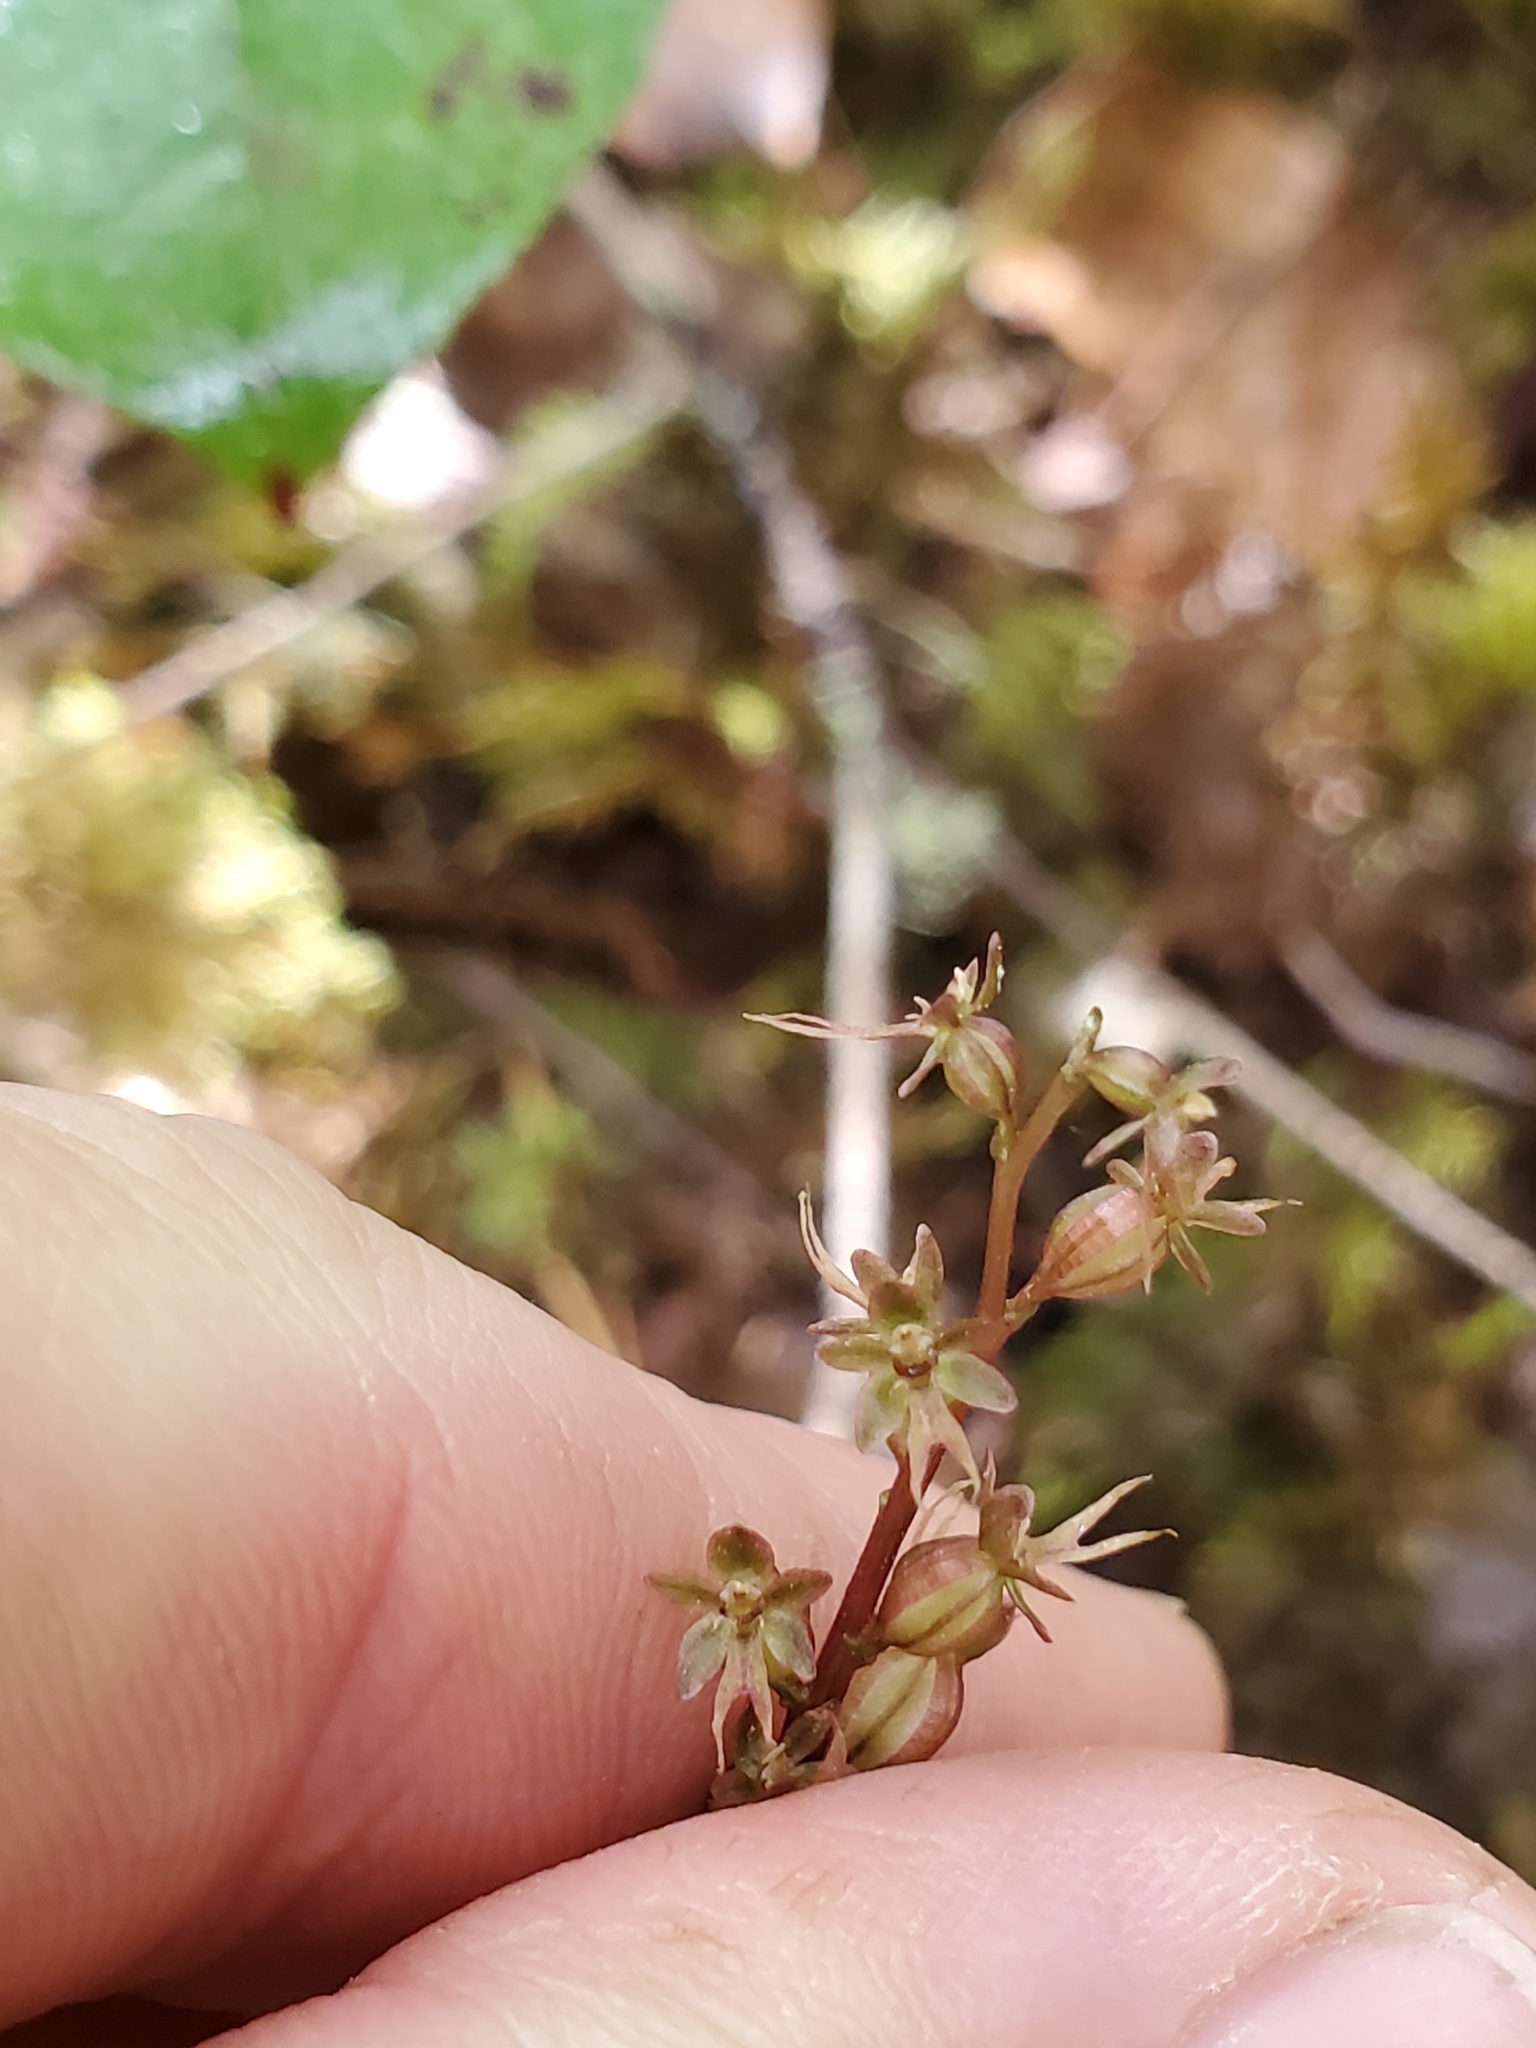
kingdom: Plantae
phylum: Tracheophyta
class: Liliopsida
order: Asparagales
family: Orchidaceae
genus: Neottia
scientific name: Neottia cordata
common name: Lesser twayblade
